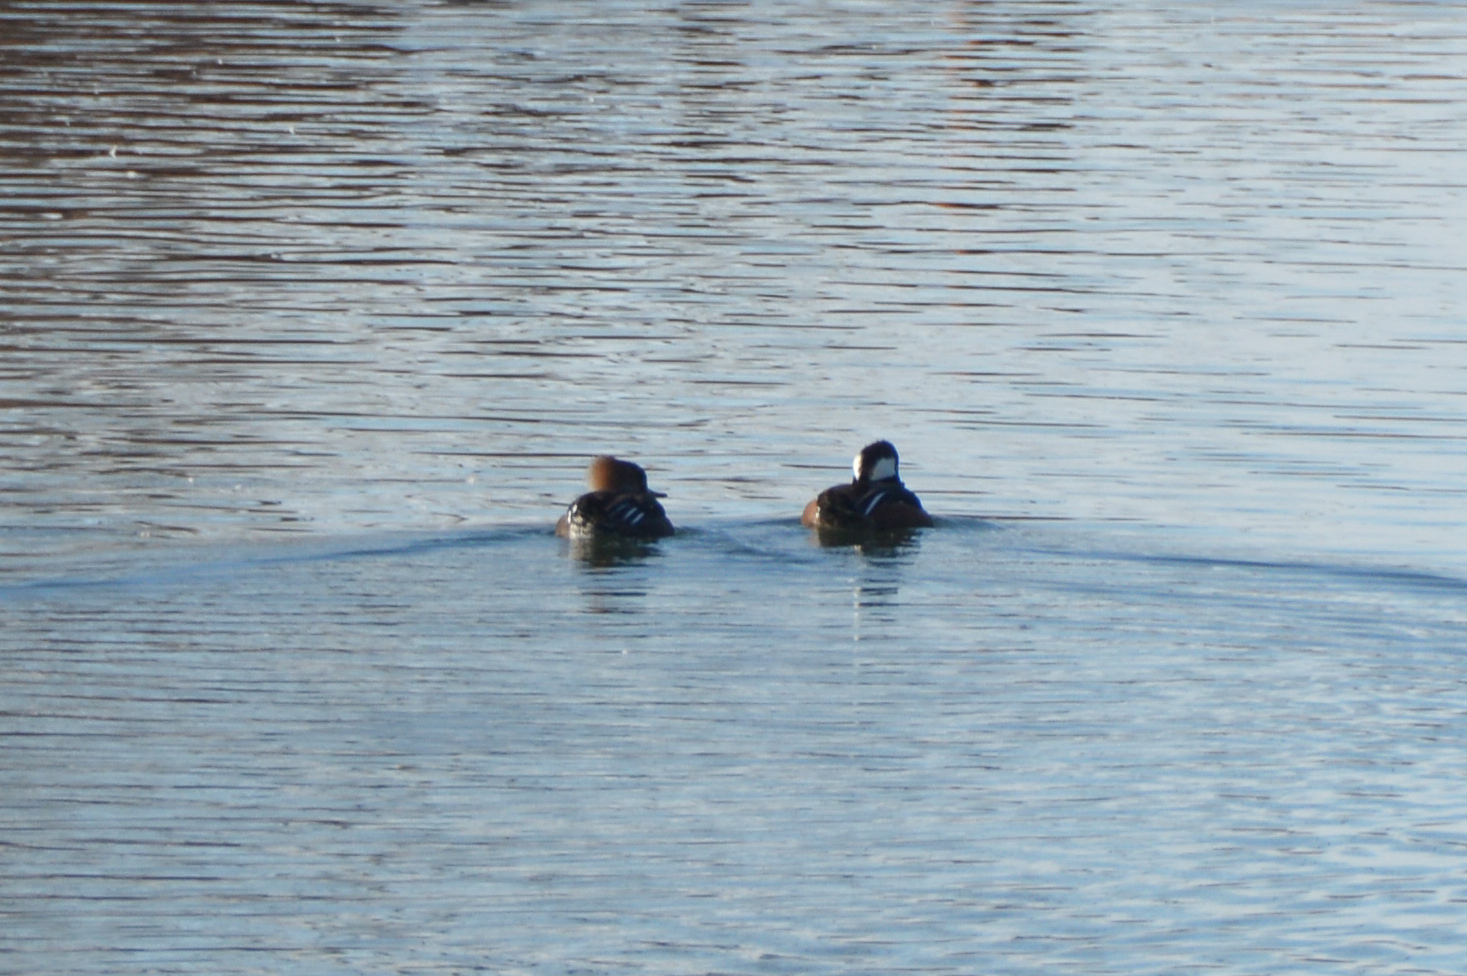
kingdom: Animalia
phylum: Chordata
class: Aves
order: Anseriformes
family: Anatidae
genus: Lophodytes
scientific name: Lophodytes cucullatus
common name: Hooded merganser
